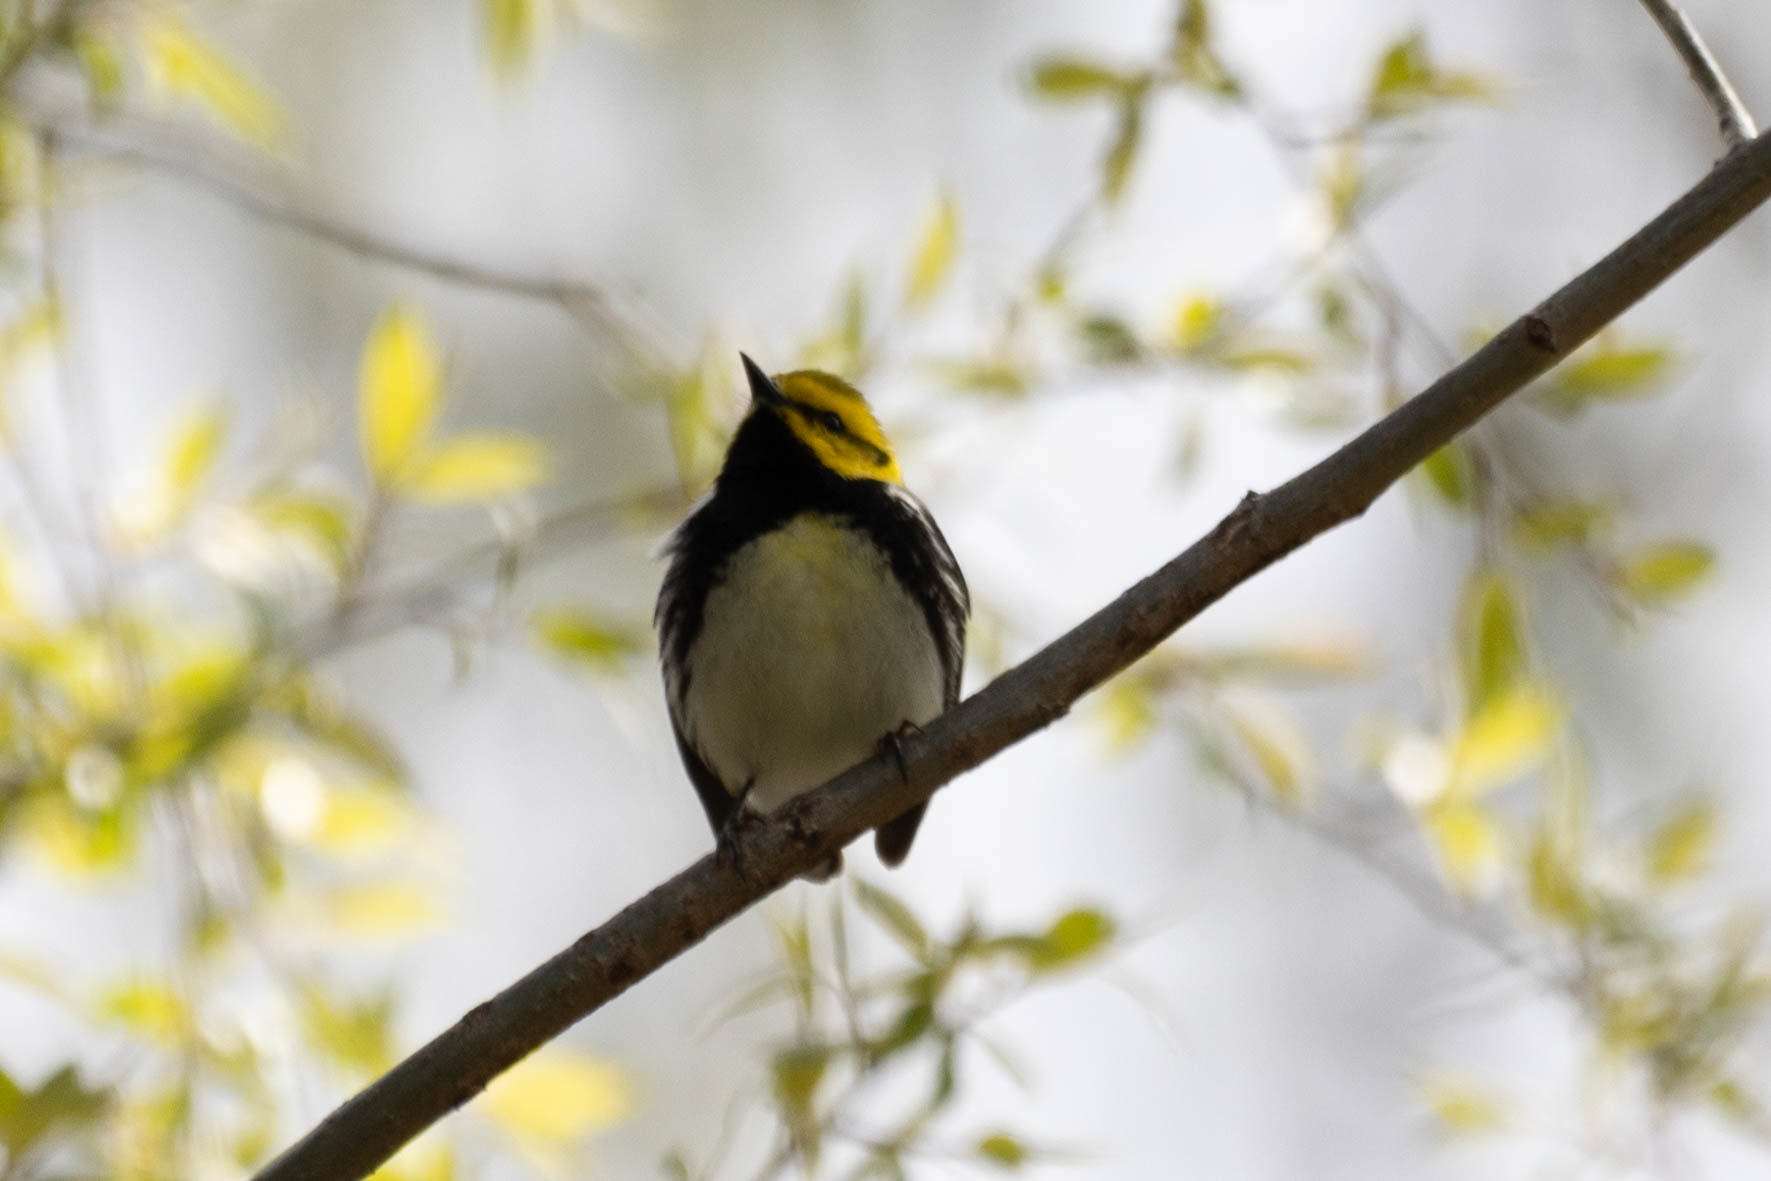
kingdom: Animalia
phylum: Chordata
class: Aves
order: Passeriformes
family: Parulidae
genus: Setophaga
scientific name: Setophaga virens
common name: Black-throated green warbler
